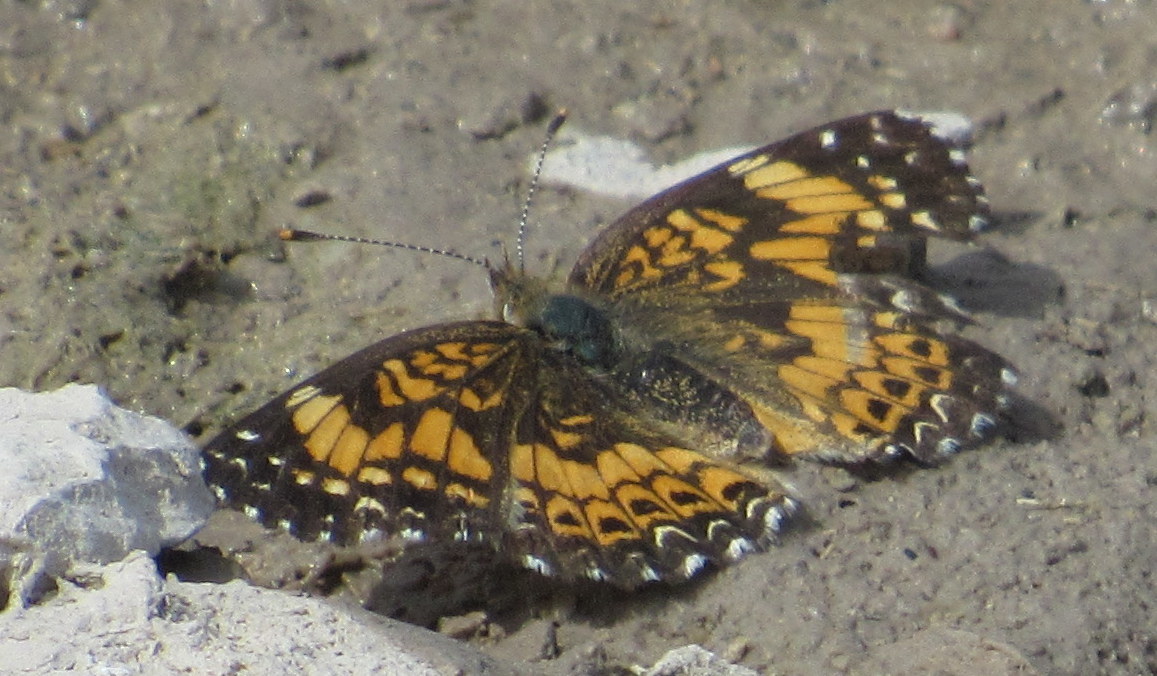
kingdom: Animalia
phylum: Arthropoda
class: Insecta
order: Lepidoptera
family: Nymphalidae
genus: Chlosyne
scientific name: Chlosyne gorgone
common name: Gorgone checkerspot
